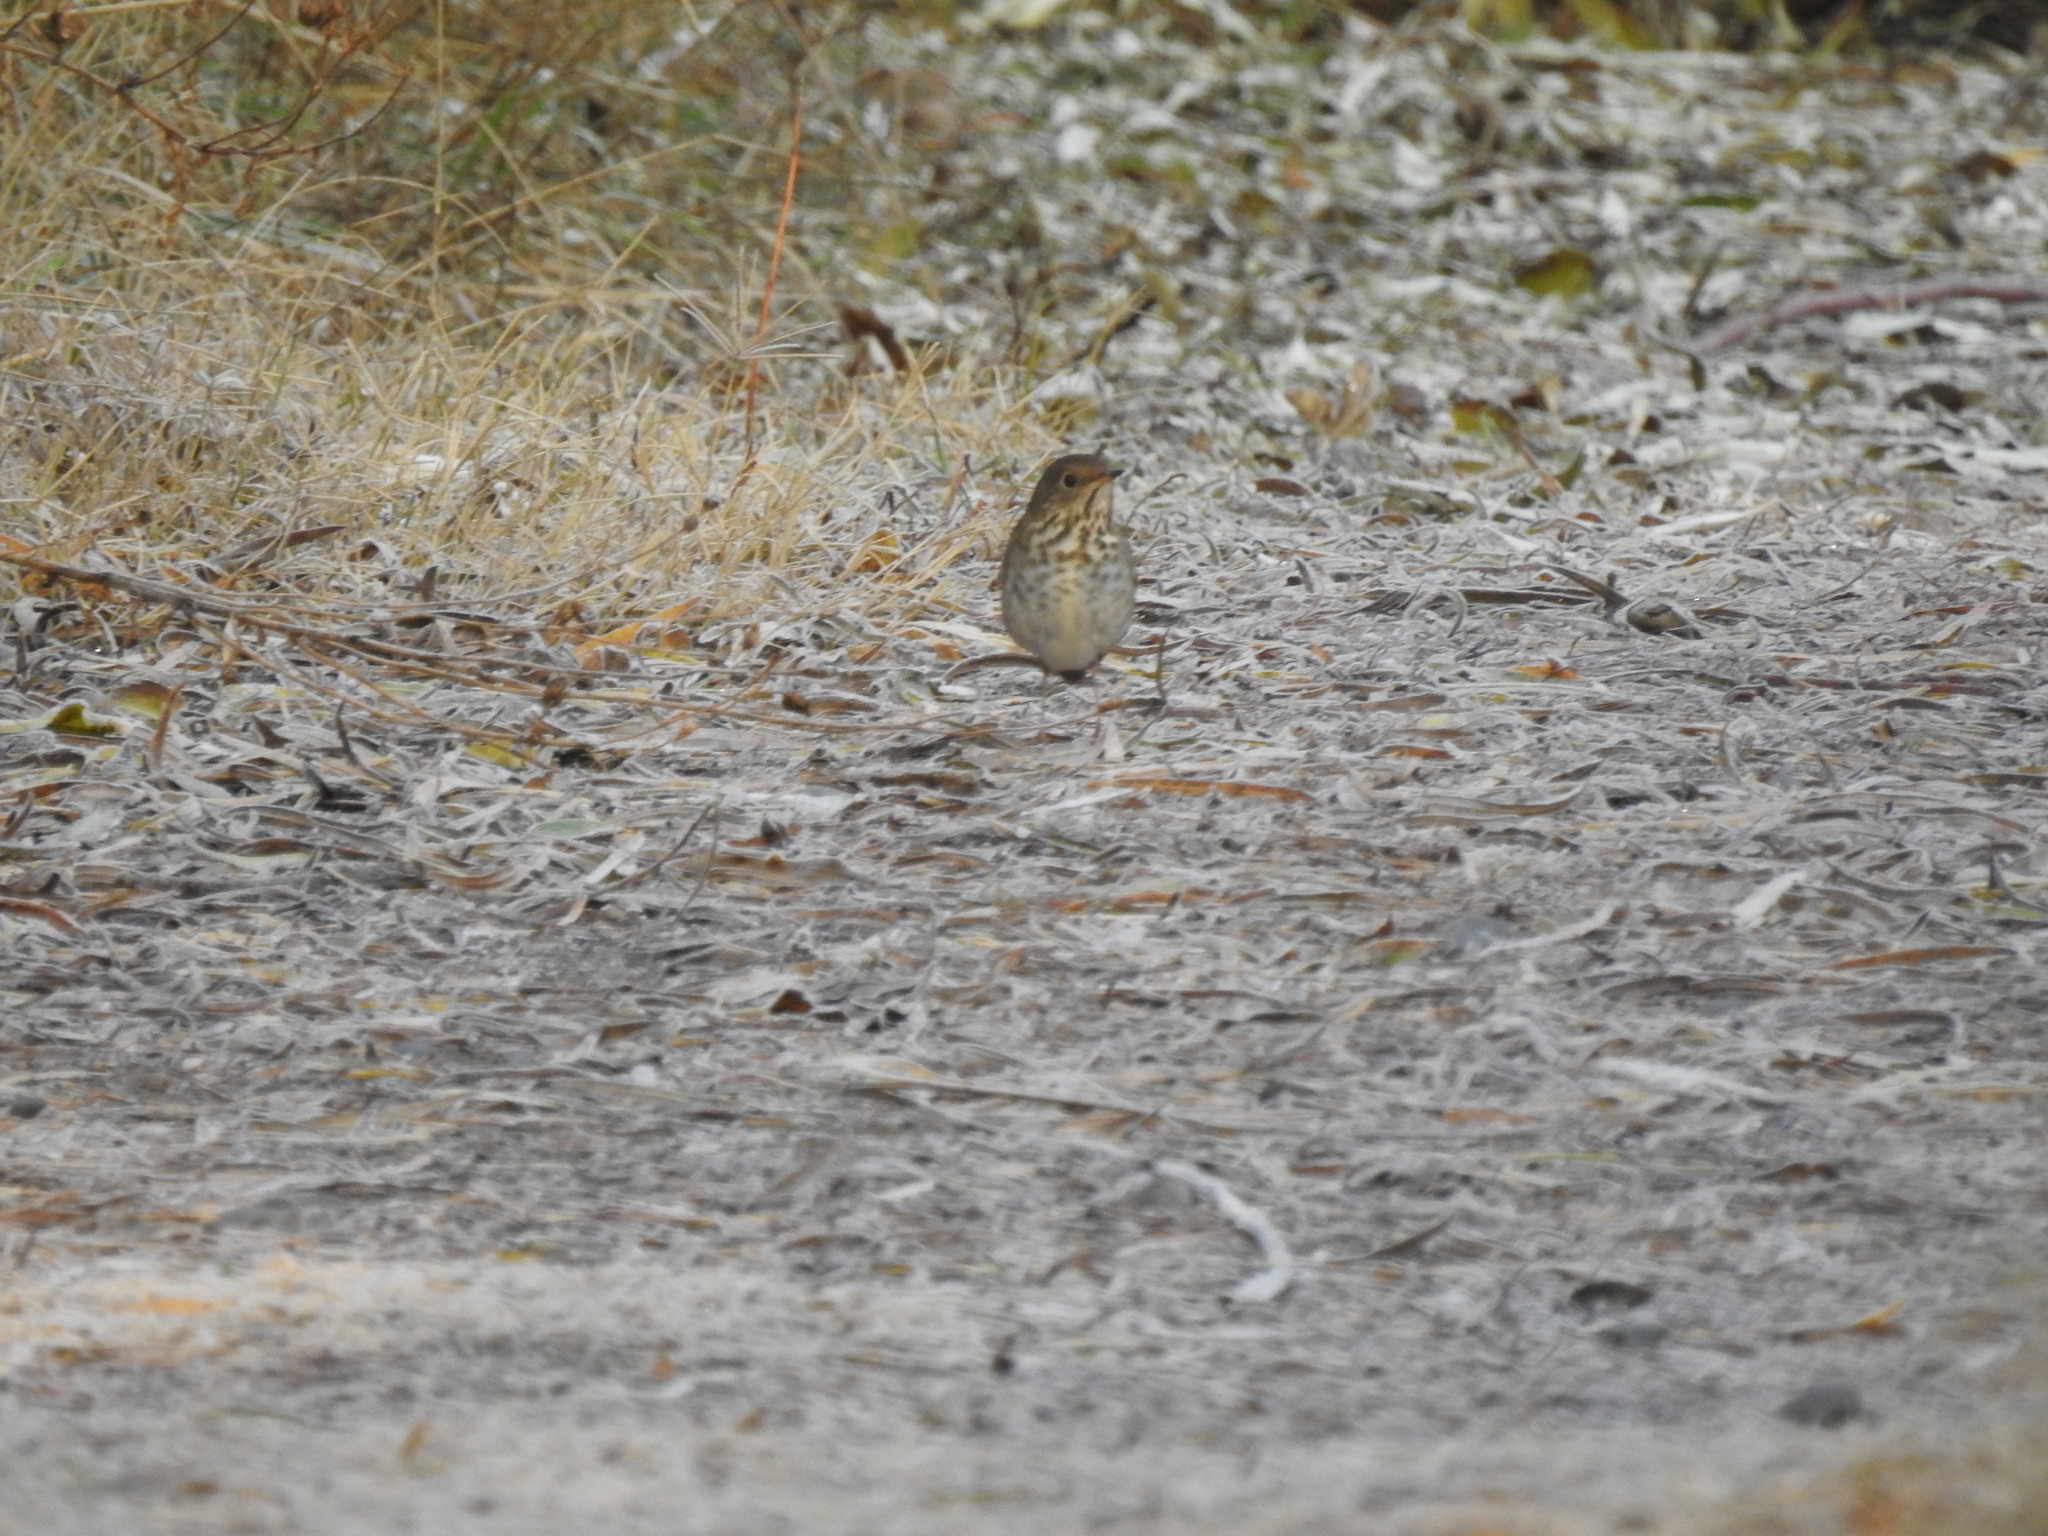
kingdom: Animalia
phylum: Chordata
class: Aves
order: Passeriformes
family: Turdidae
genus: Catharus
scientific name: Catharus guttatus
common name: Hermit thrush
